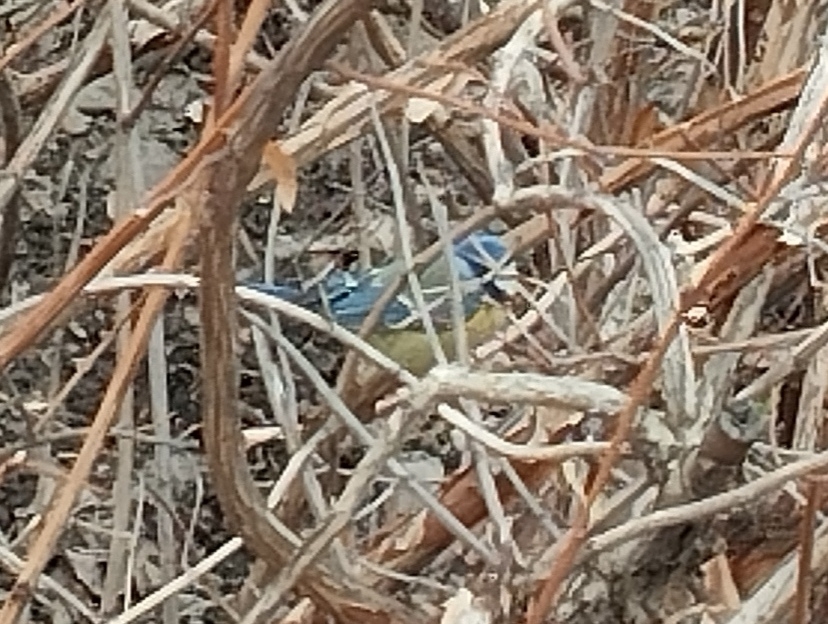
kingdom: Animalia
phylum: Chordata
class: Aves
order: Passeriformes
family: Paridae
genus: Cyanistes
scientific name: Cyanistes caeruleus
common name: Eurasian blue tit
